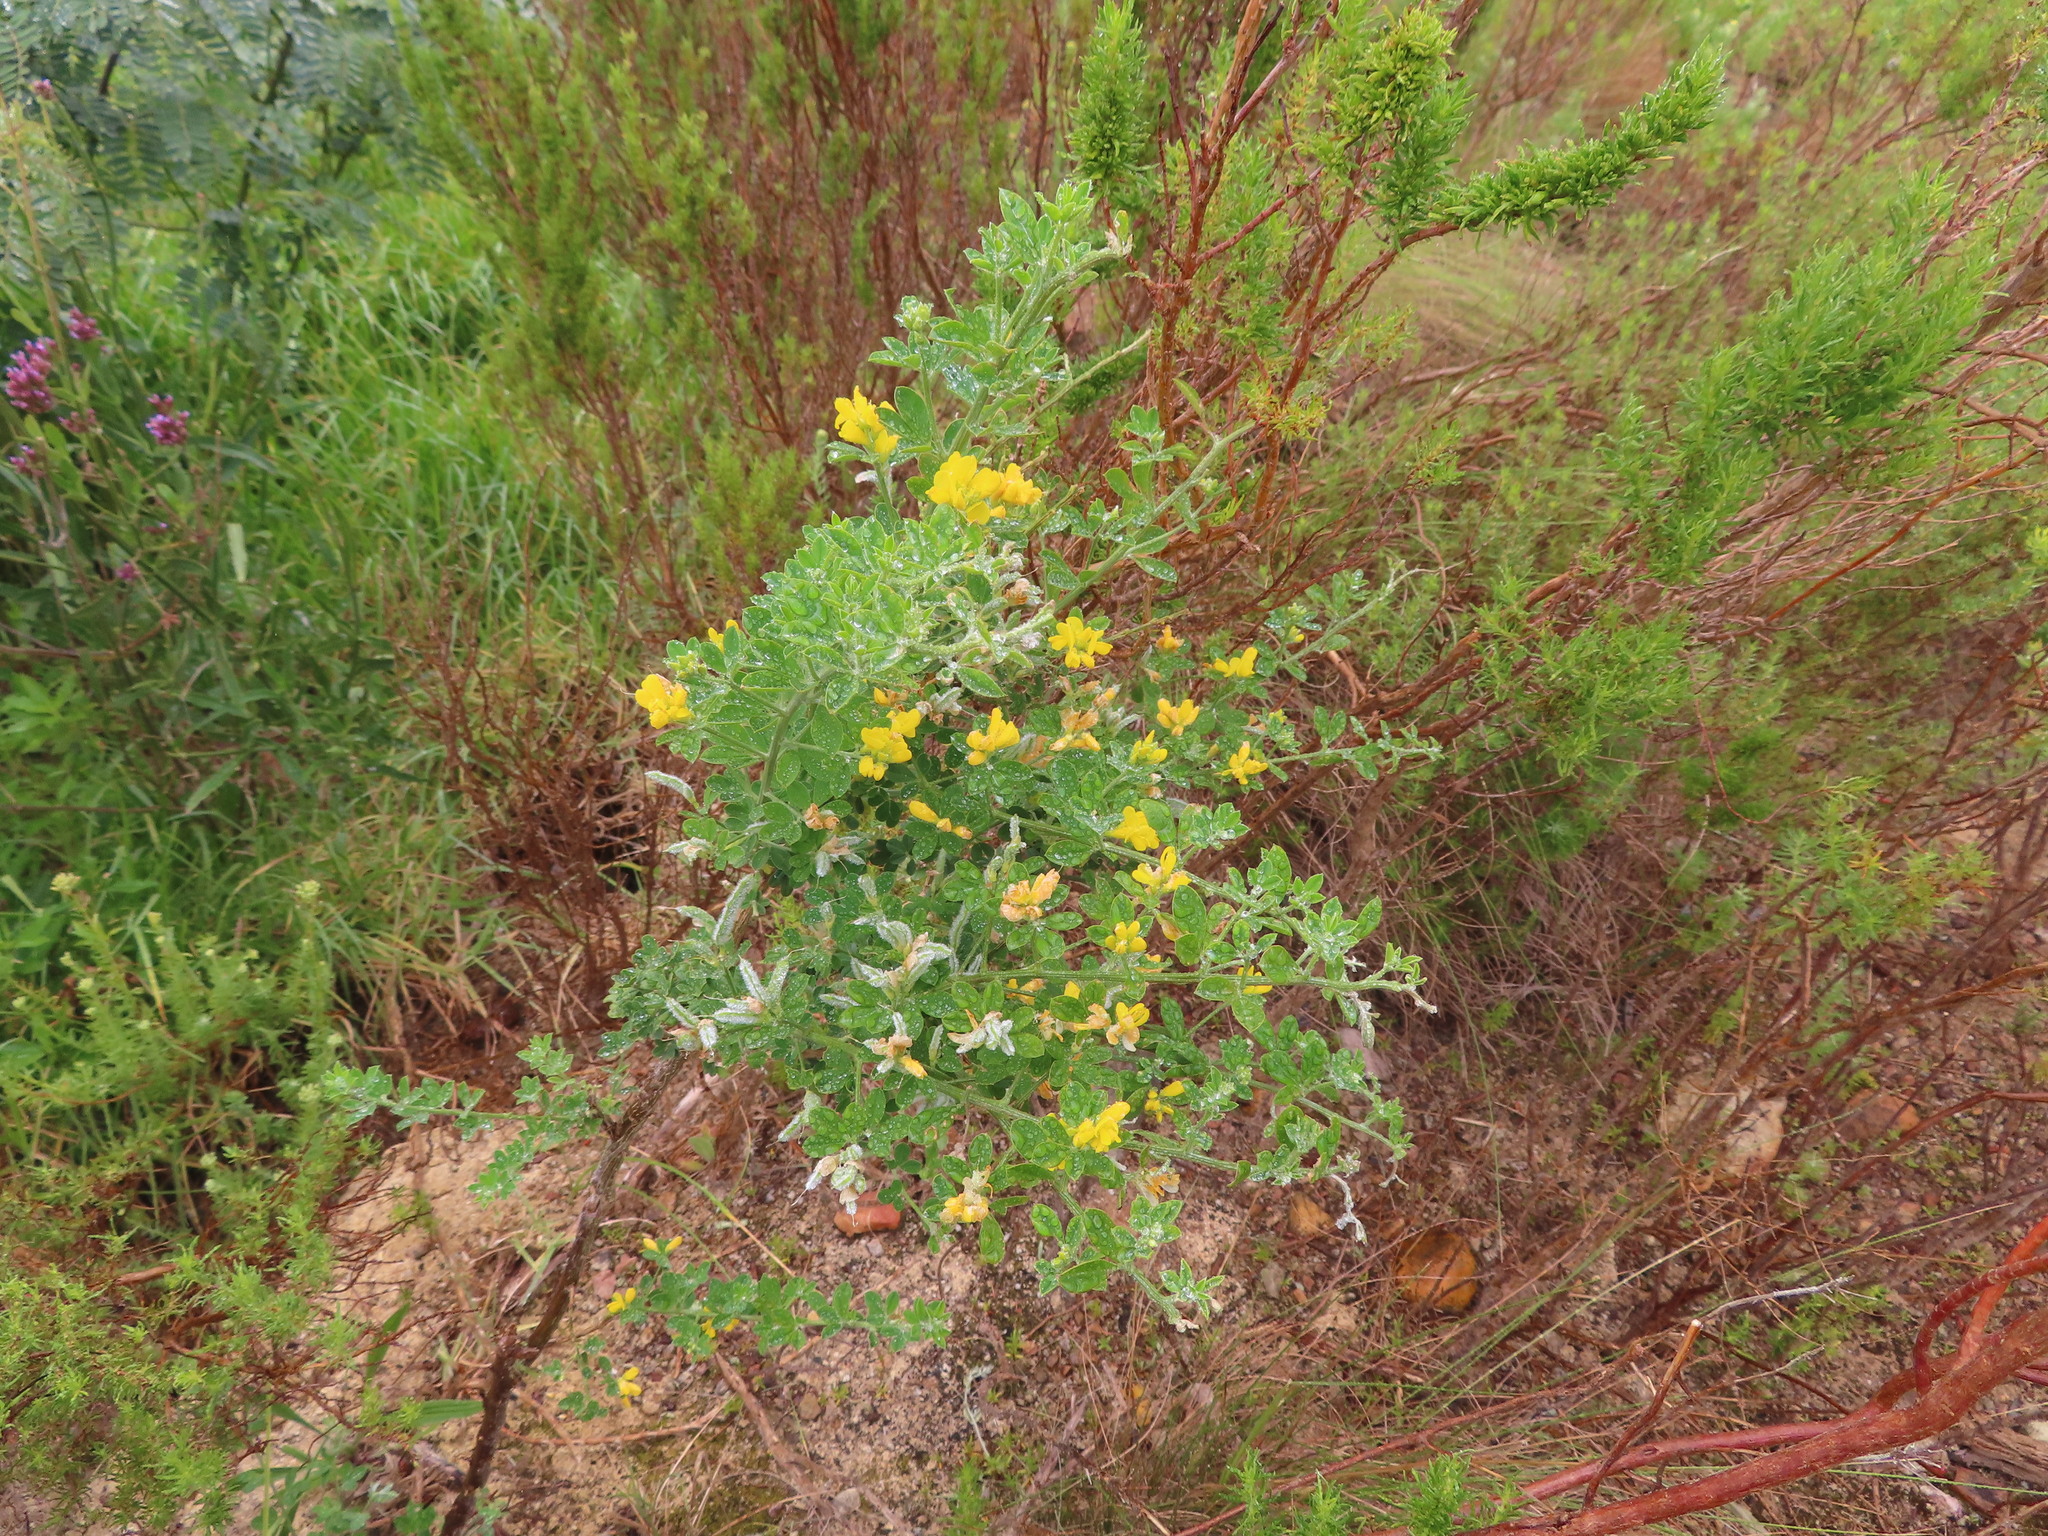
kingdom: Plantae
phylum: Tracheophyta
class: Magnoliopsida
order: Fabales
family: Fabaceae
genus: Genista
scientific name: Genista monspessulana
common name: Montpellier broom
